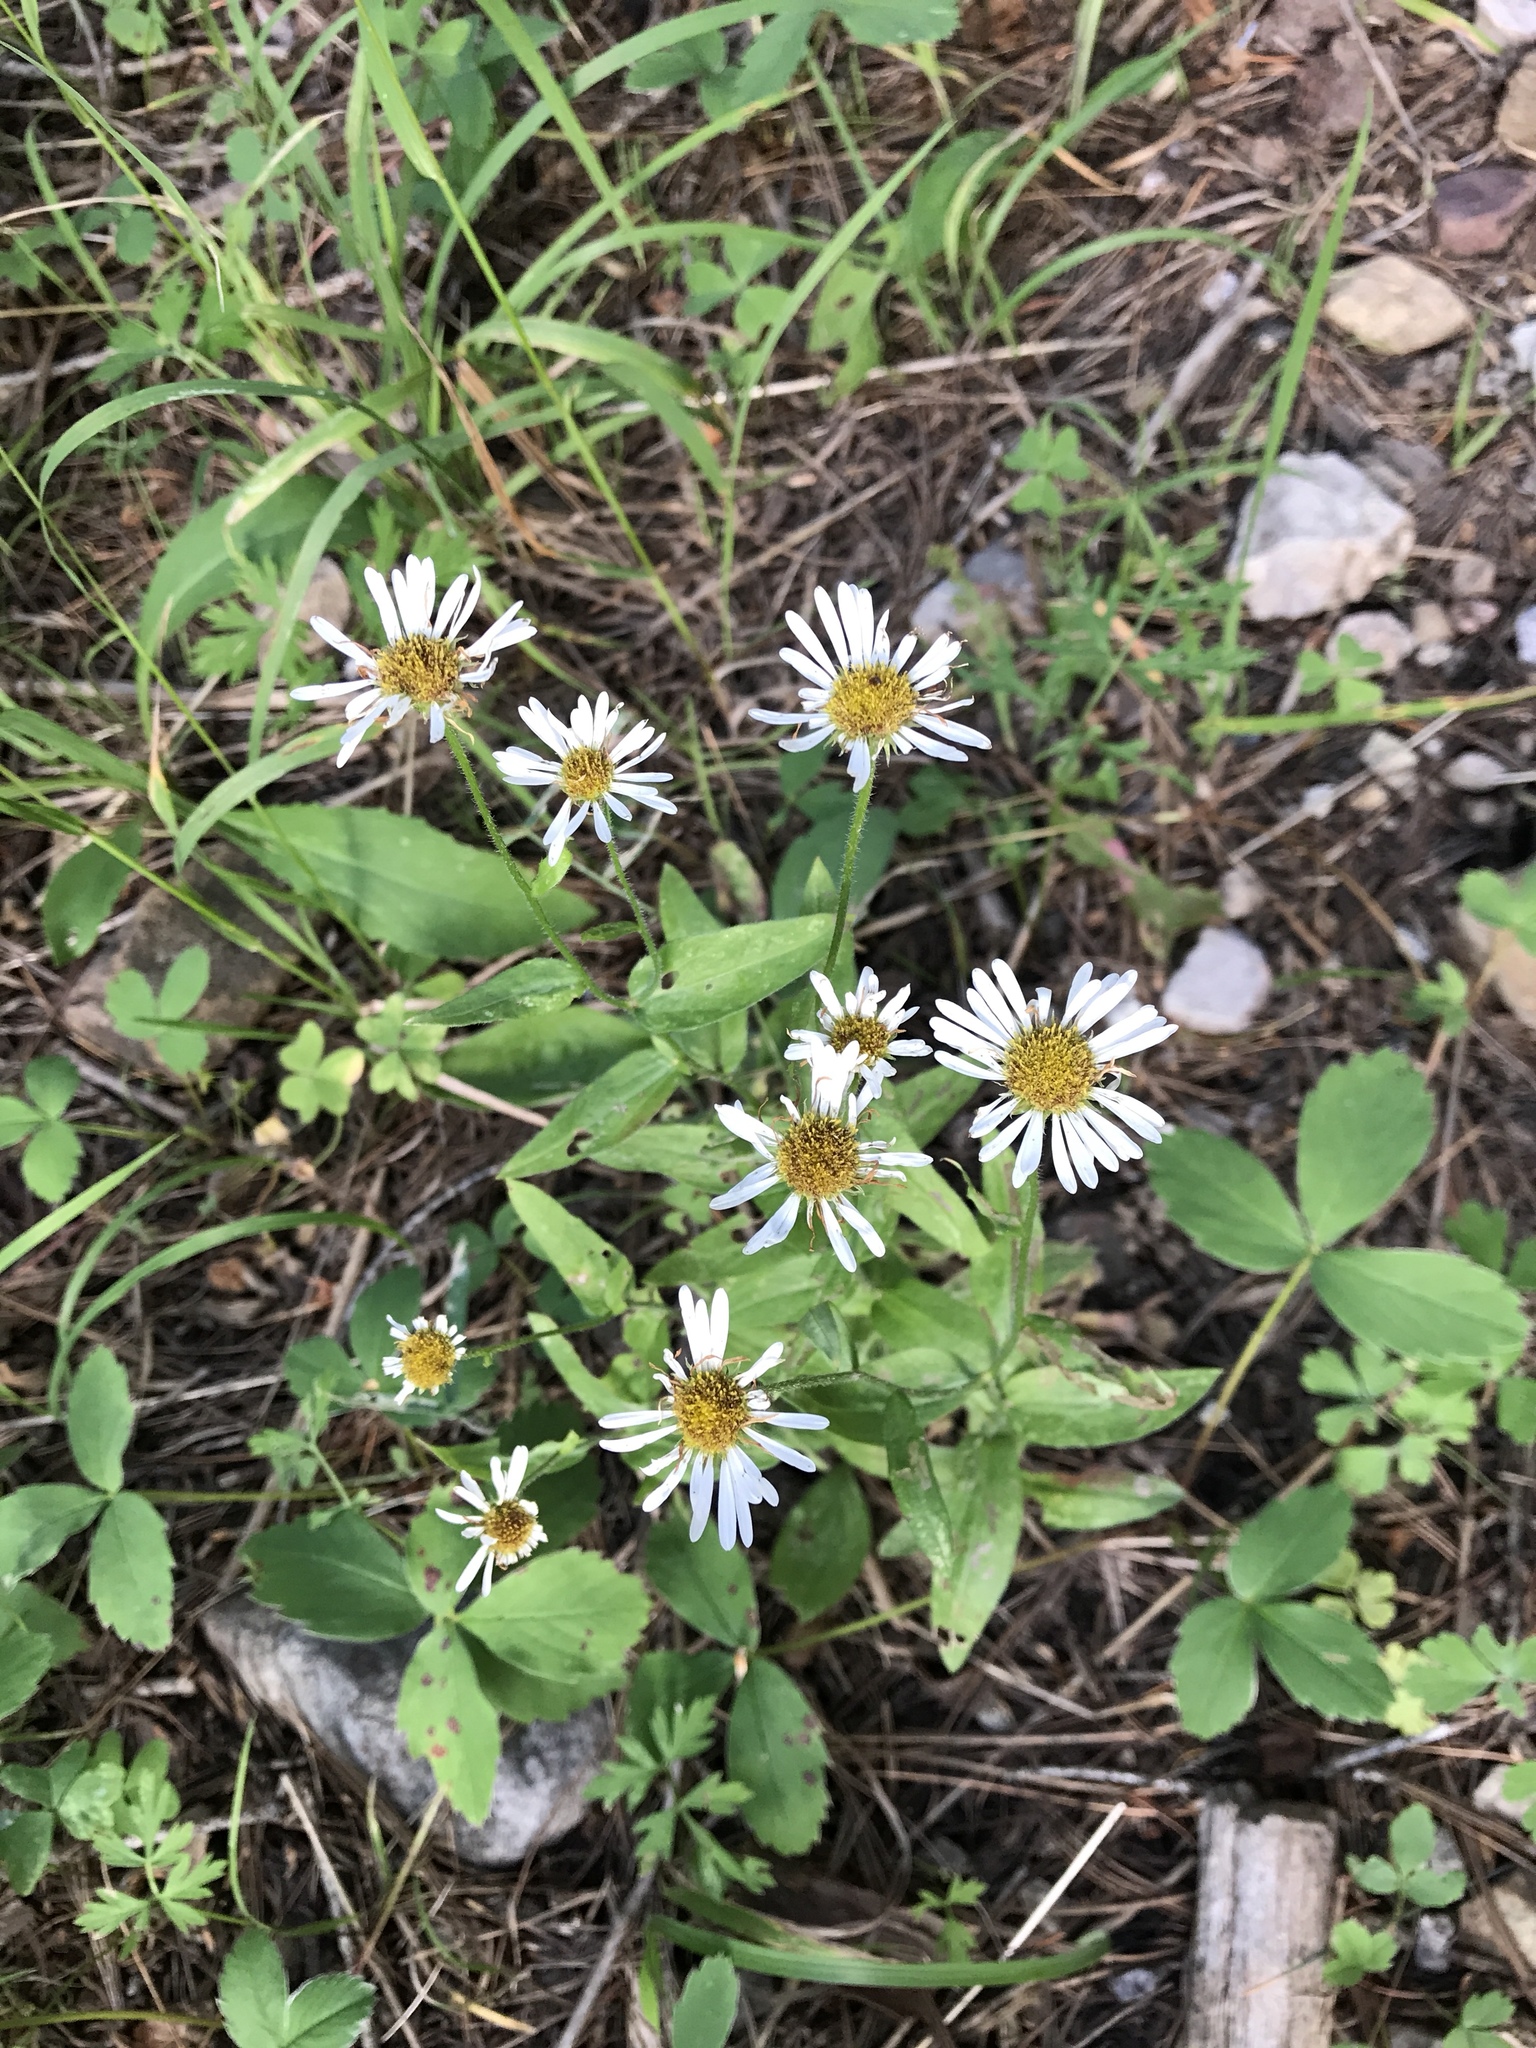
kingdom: Plantae
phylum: Tracheophyta
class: Magnoliopsida
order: Asterales
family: Asteraceae
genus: Erigeron
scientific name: Erigeron arizonicus
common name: Arizona fleabane
